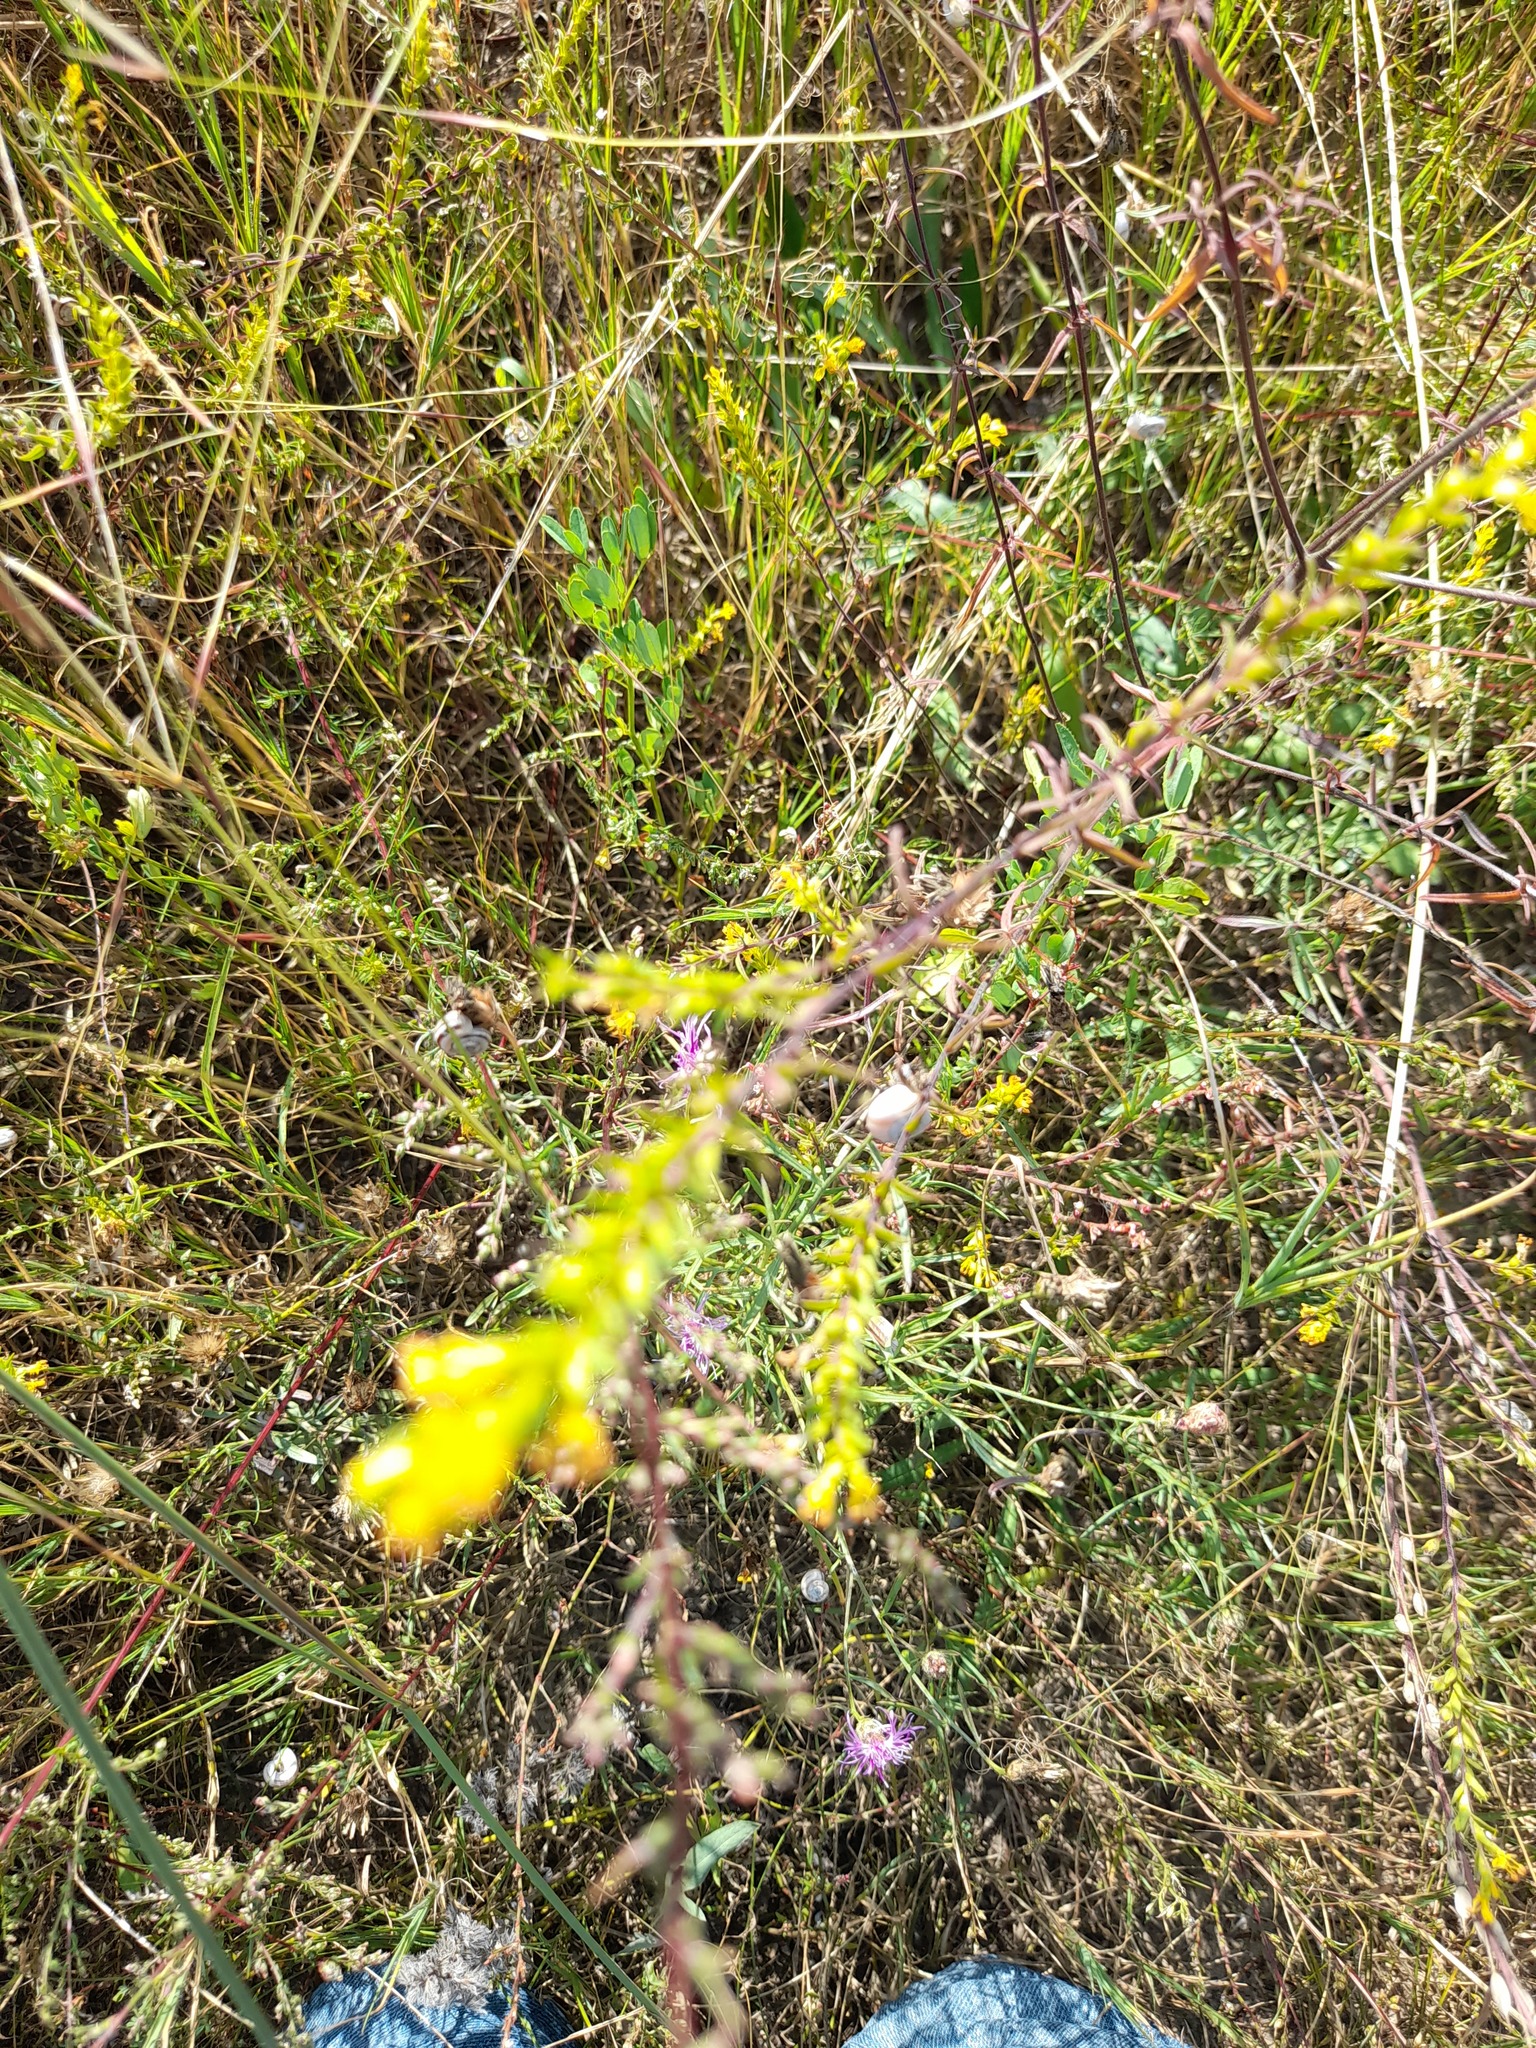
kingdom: Plantae
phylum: Tracheophyta
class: Magnoliopsida
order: Lamiales
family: Orobanchaceae
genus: Odontites
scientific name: Odontites luteus
